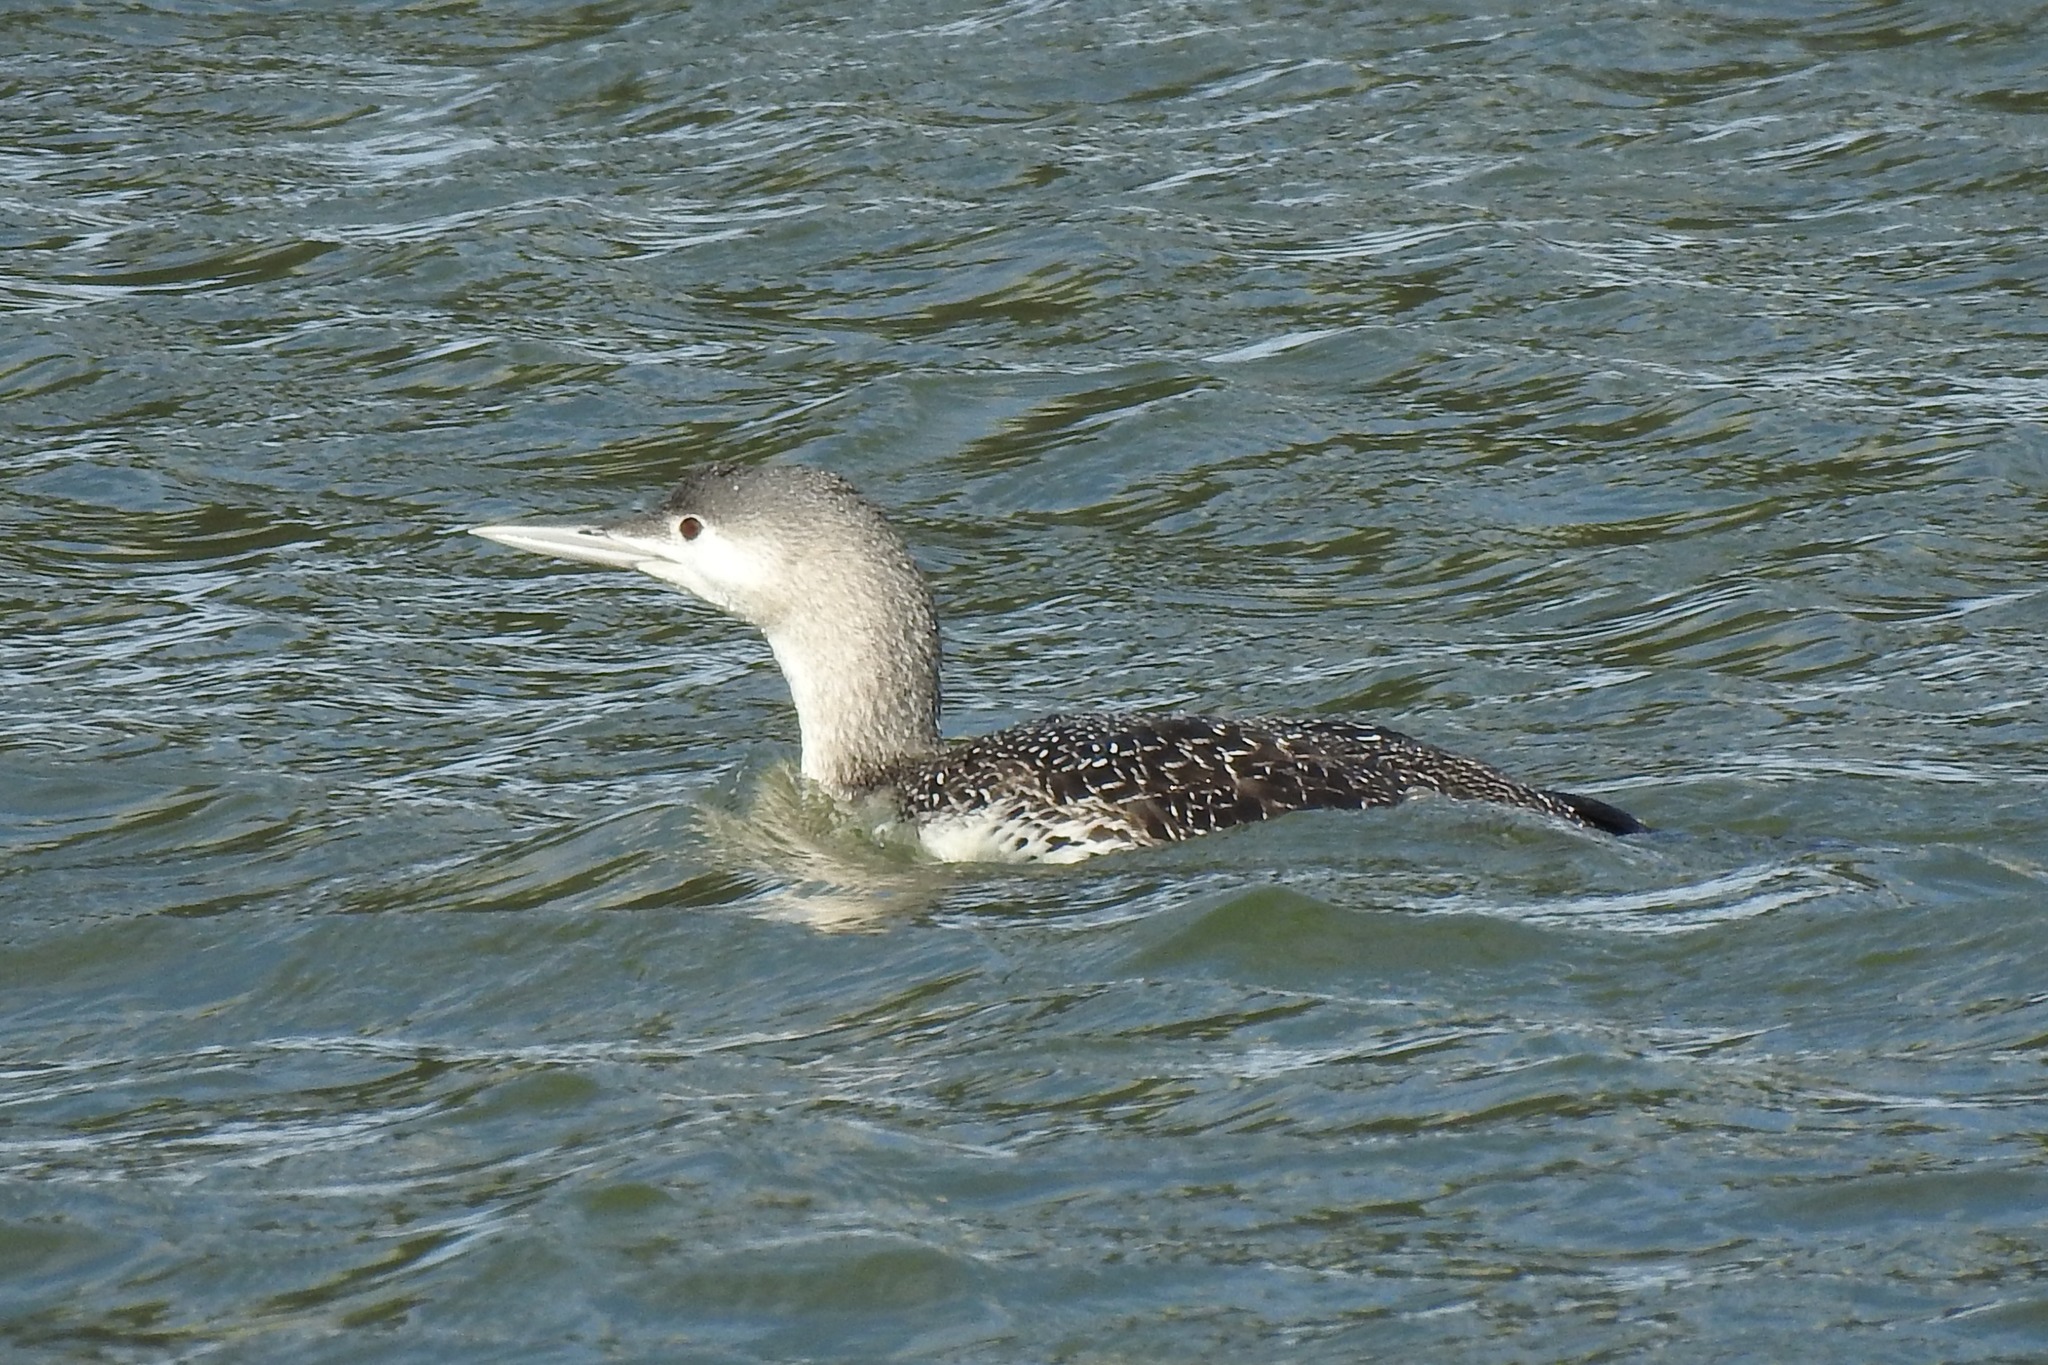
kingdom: Animalia
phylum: Chordata
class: Aves
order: Gaviiformes
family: Gaviidae
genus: Gavia
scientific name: Gavia stellata
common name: Red-throated loon
